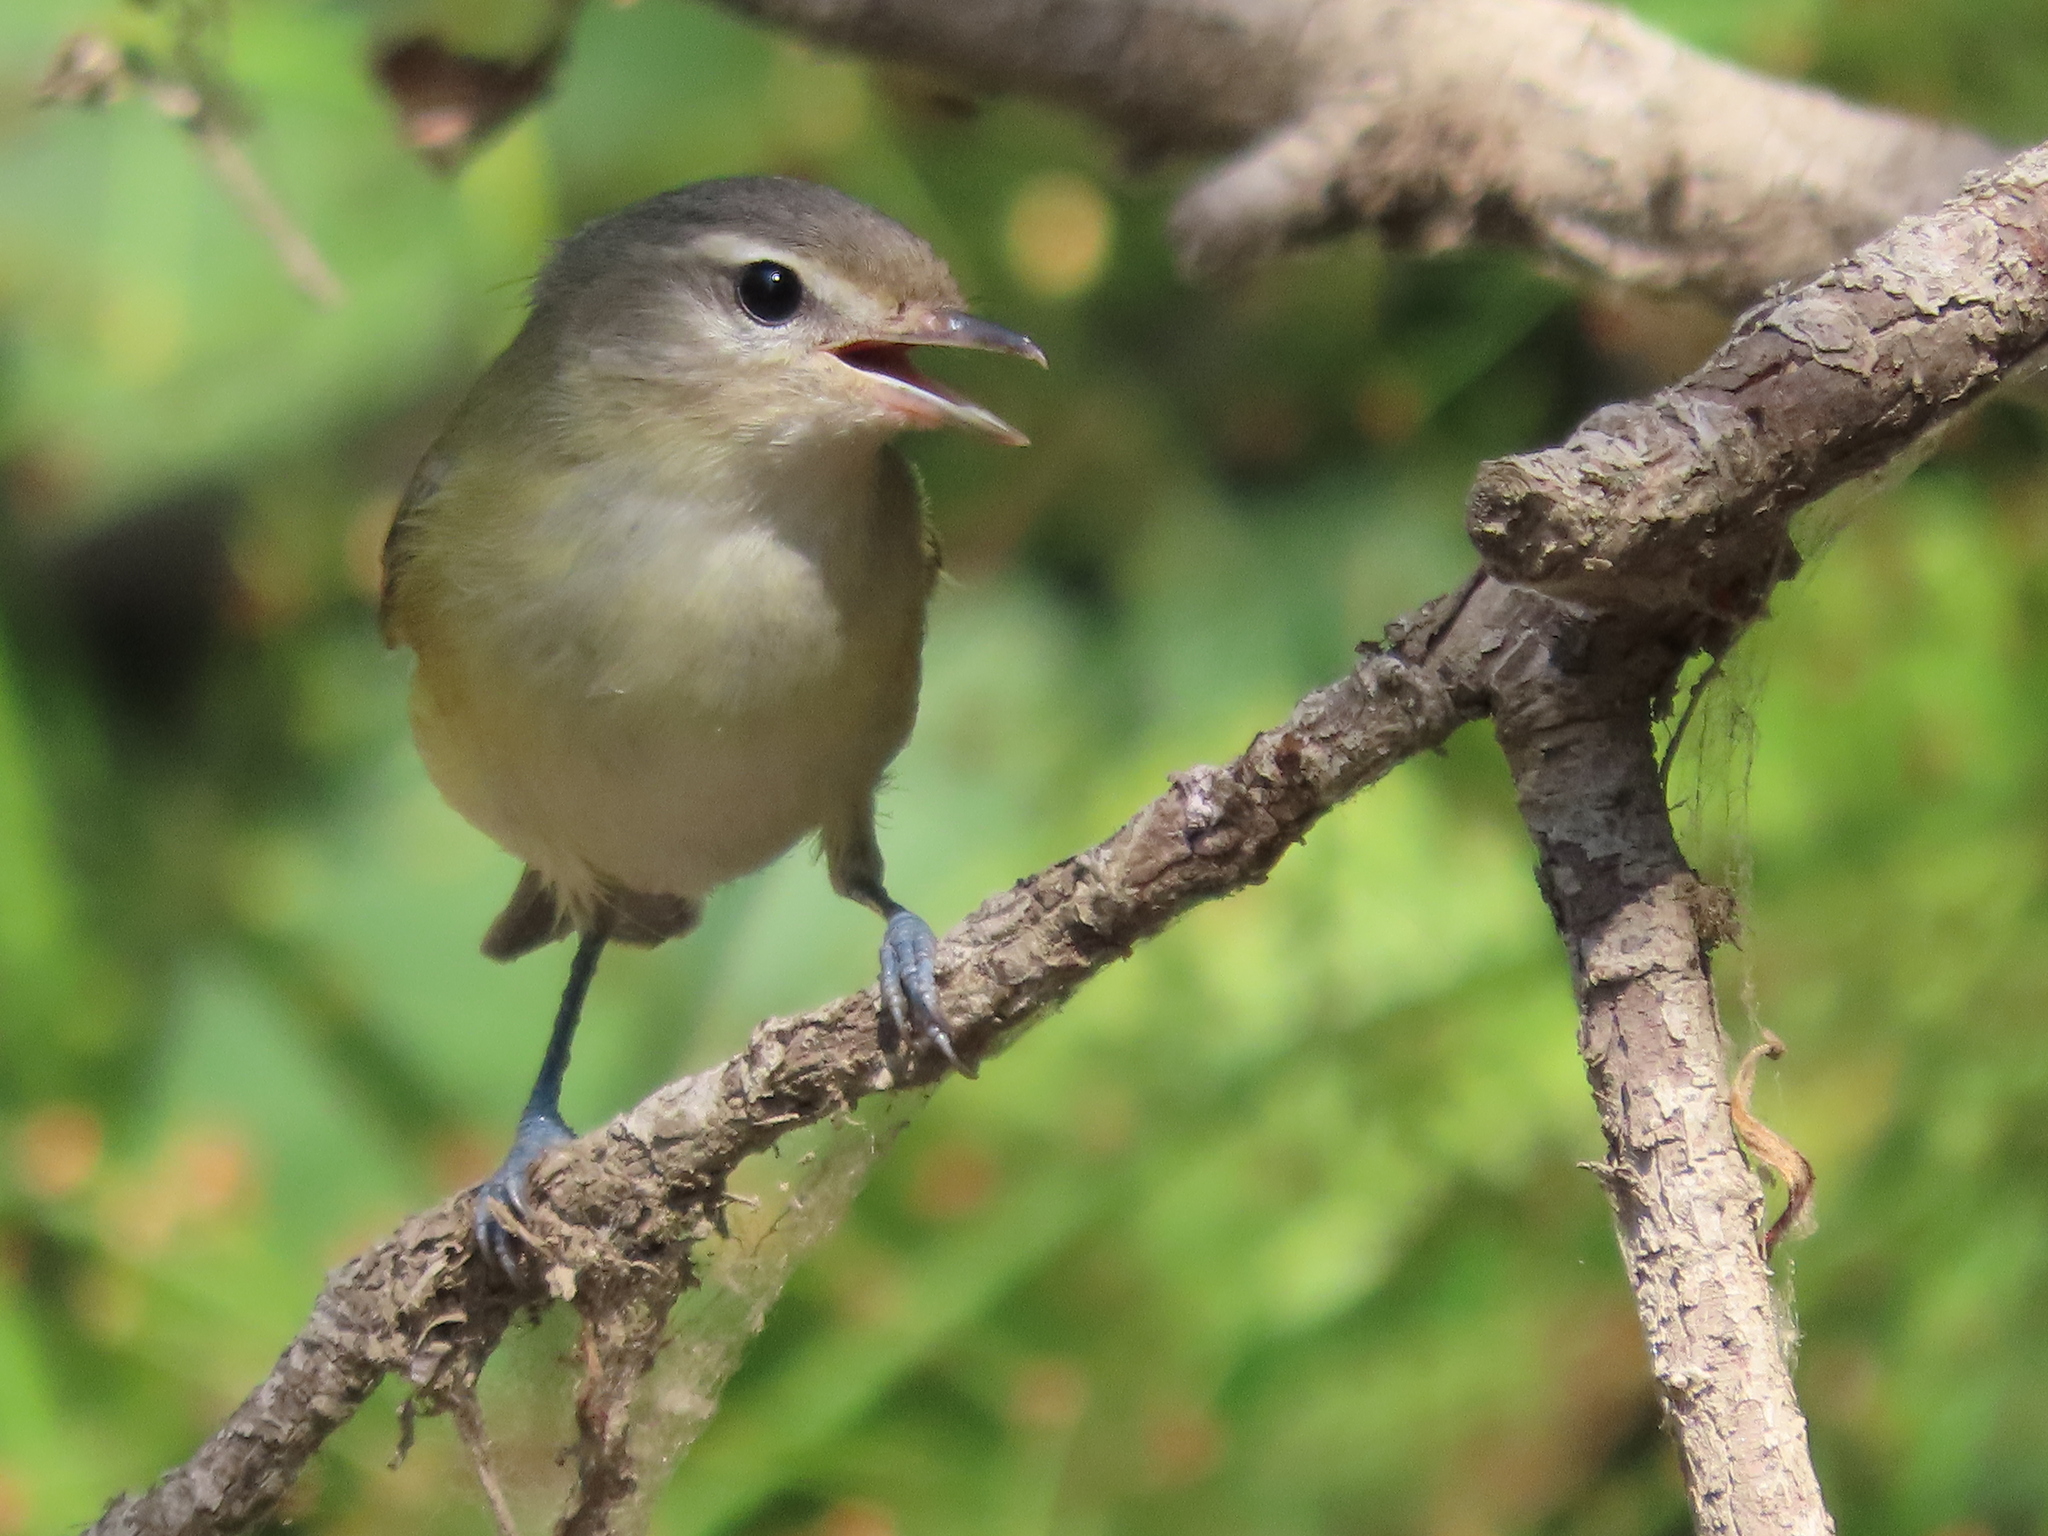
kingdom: Animalia
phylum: Chordata
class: Aves
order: Passeriformes
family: Vireonidae
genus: Vireo
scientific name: Vireo gilvus
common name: Warbling vireo
